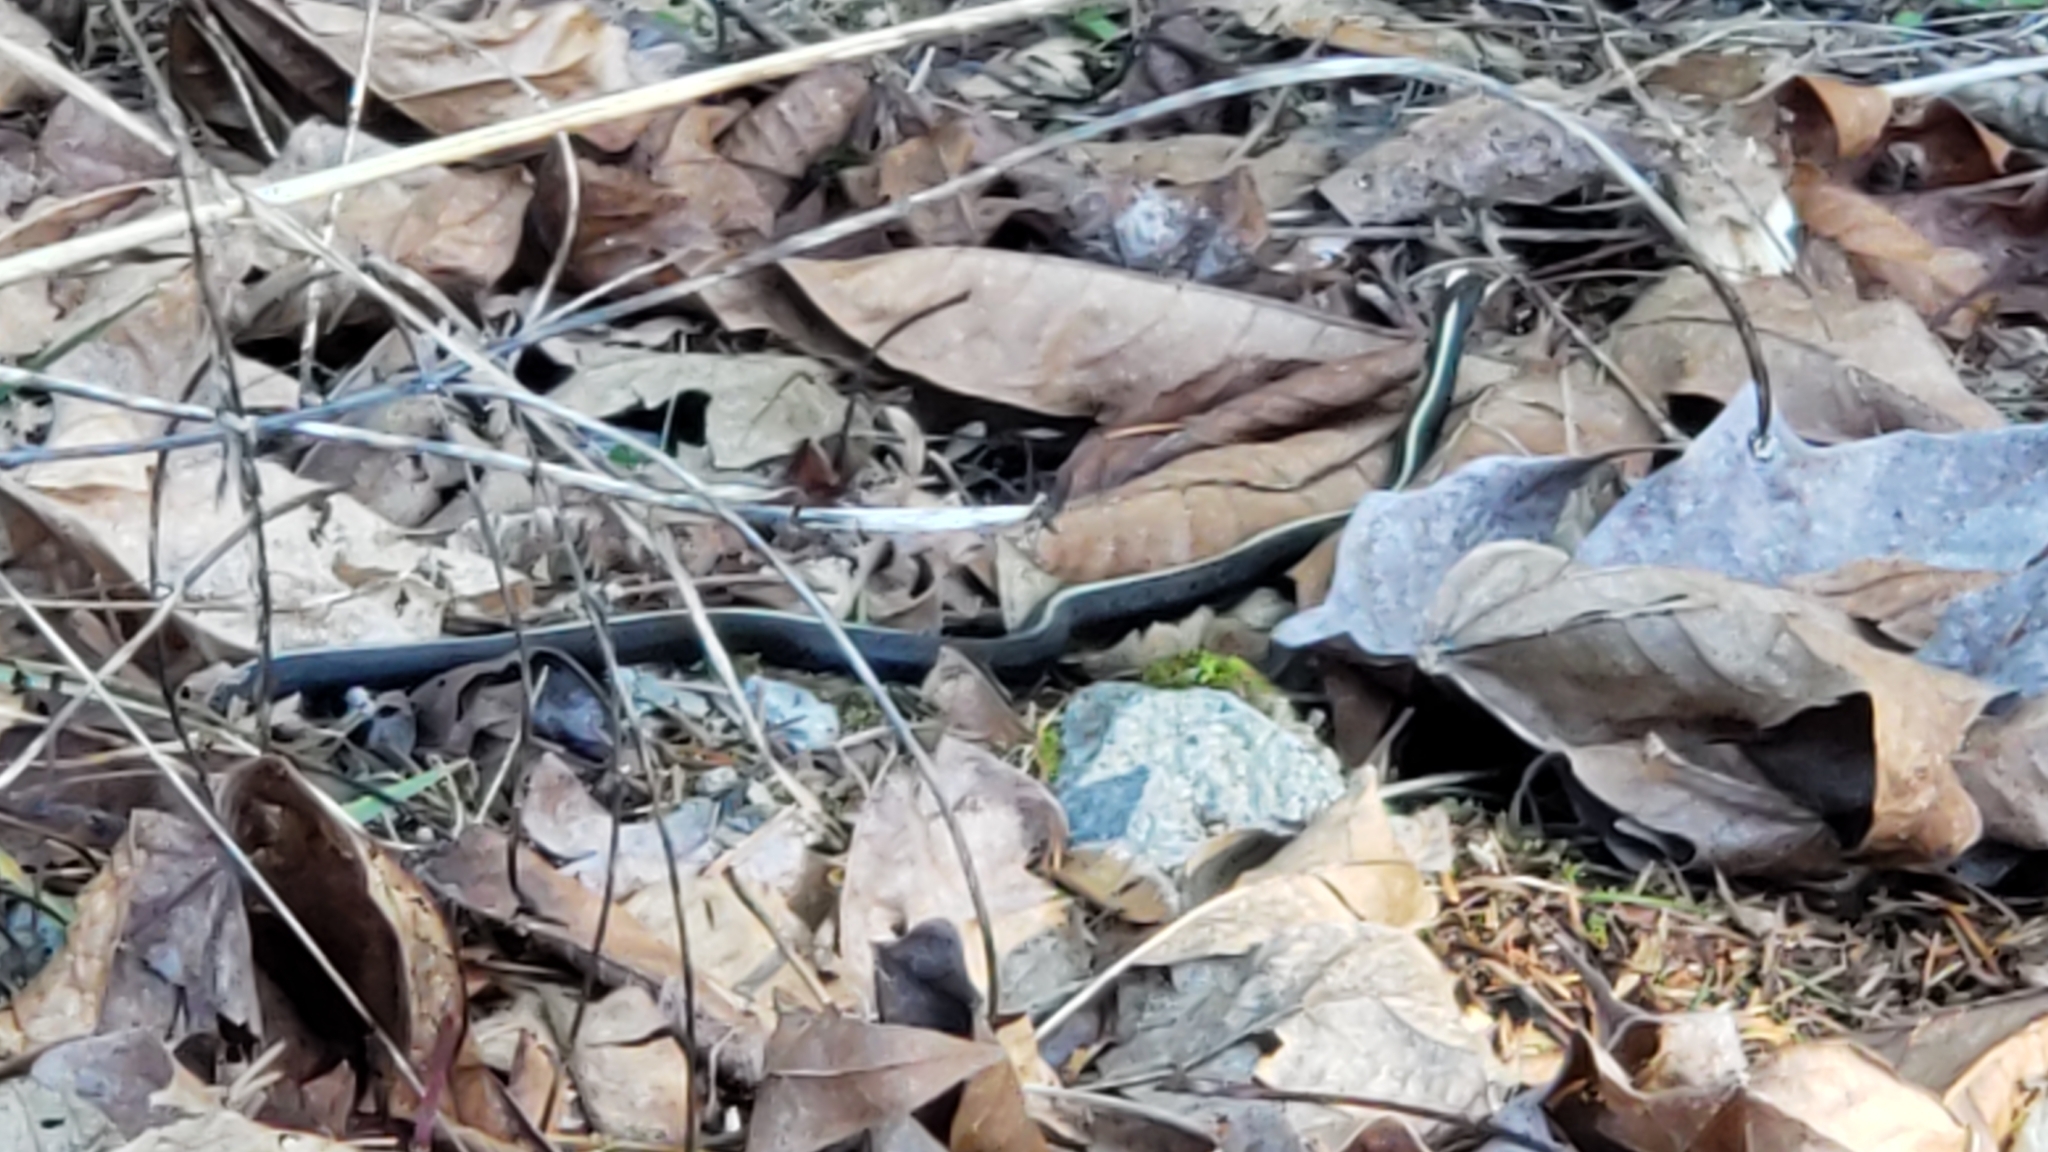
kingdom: Animalia
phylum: Chordata
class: Squamata
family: Colubridae
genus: Thamnophis
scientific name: Thamnophis ordinoides
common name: Northwestern garter snake
